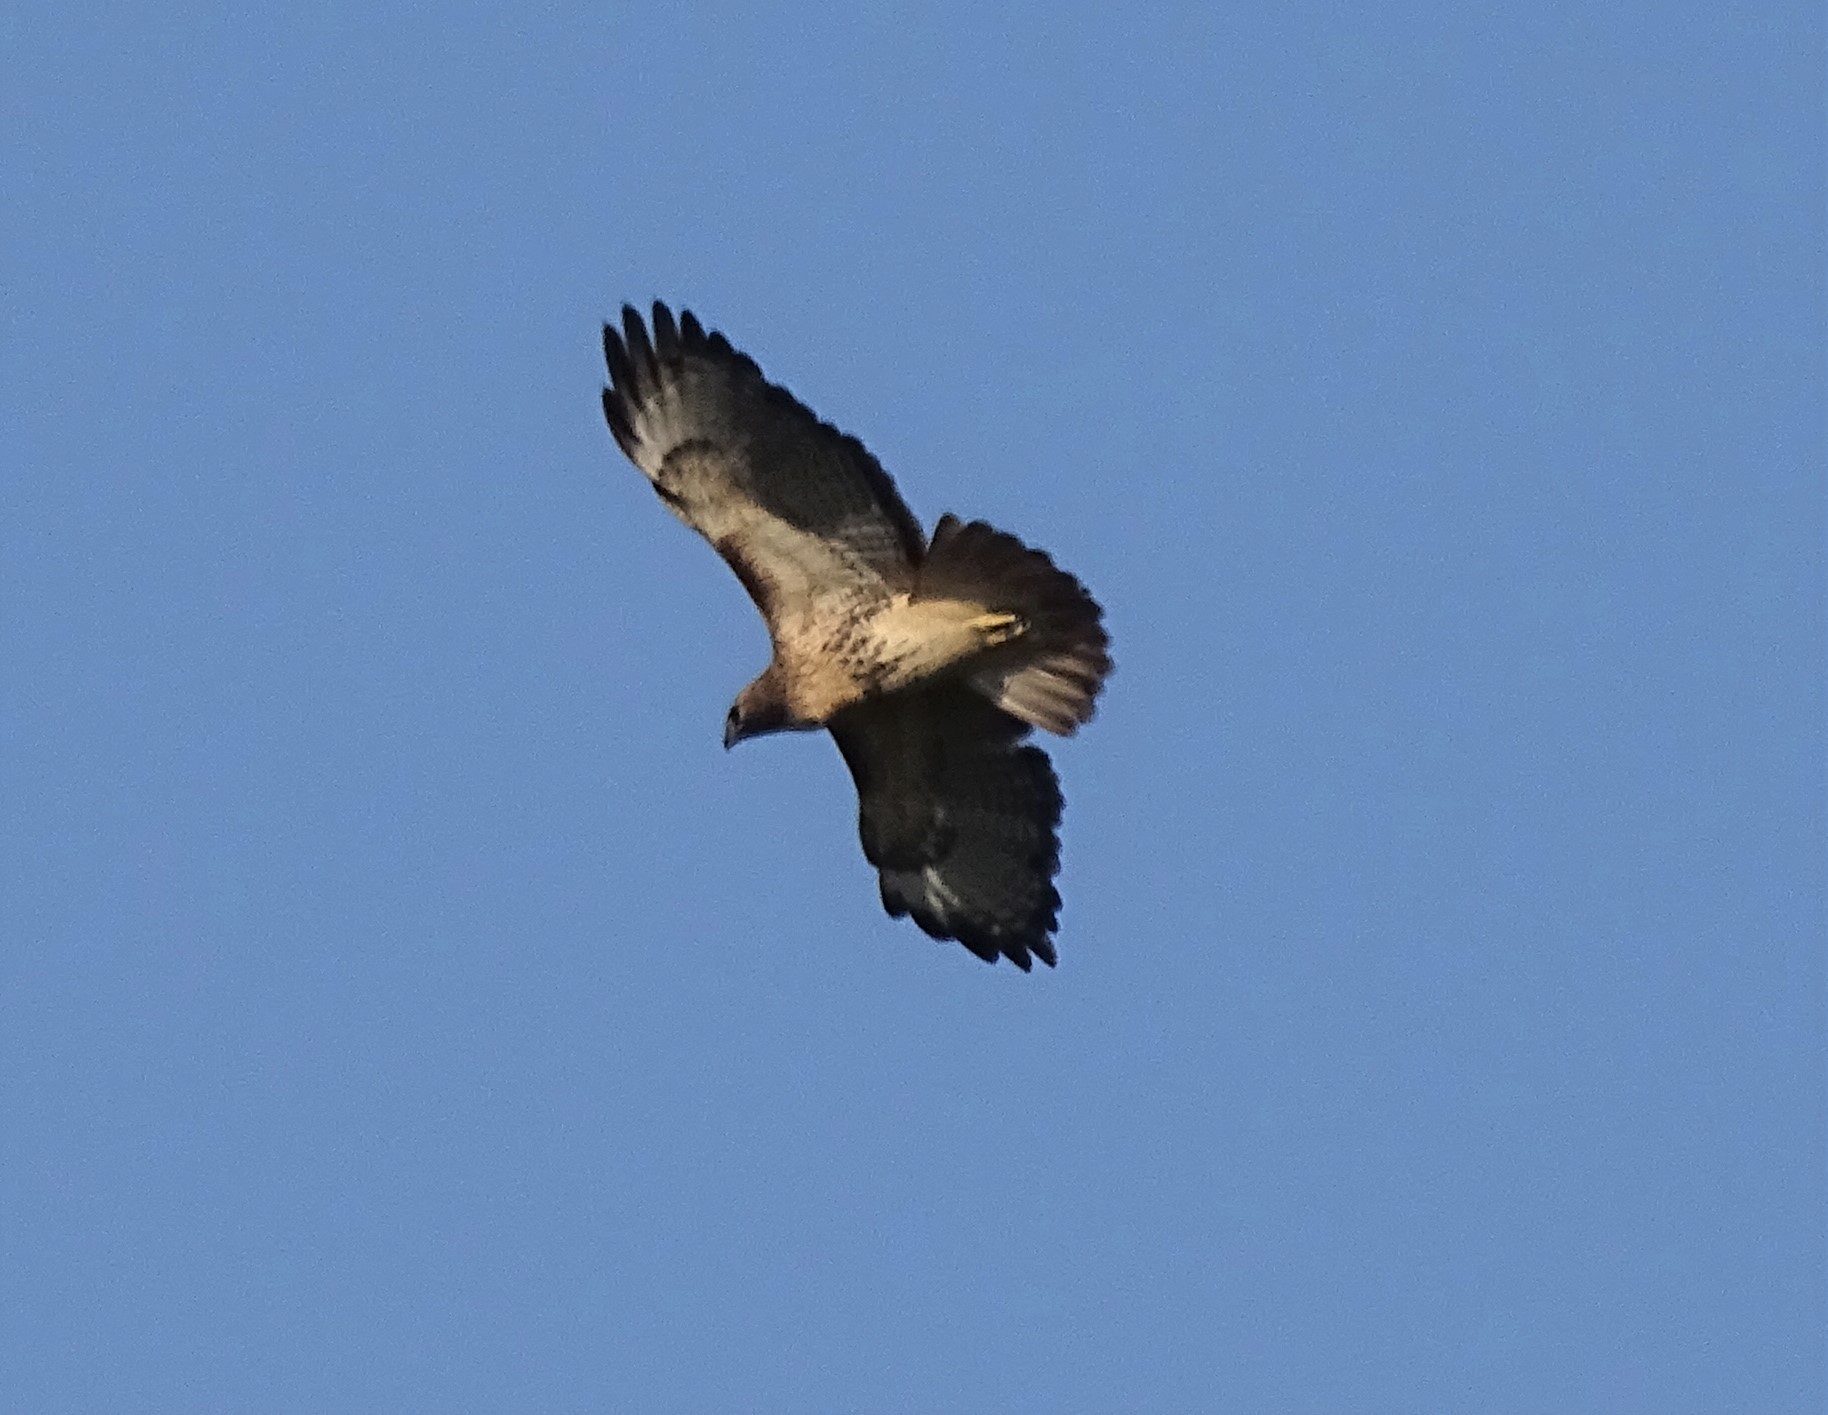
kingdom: Animalia
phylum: Chordata
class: Aves
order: Accipitriformes
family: Accipitridae
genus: Buteo
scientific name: Buteo jamaicensis
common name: Red-tailed hawk
